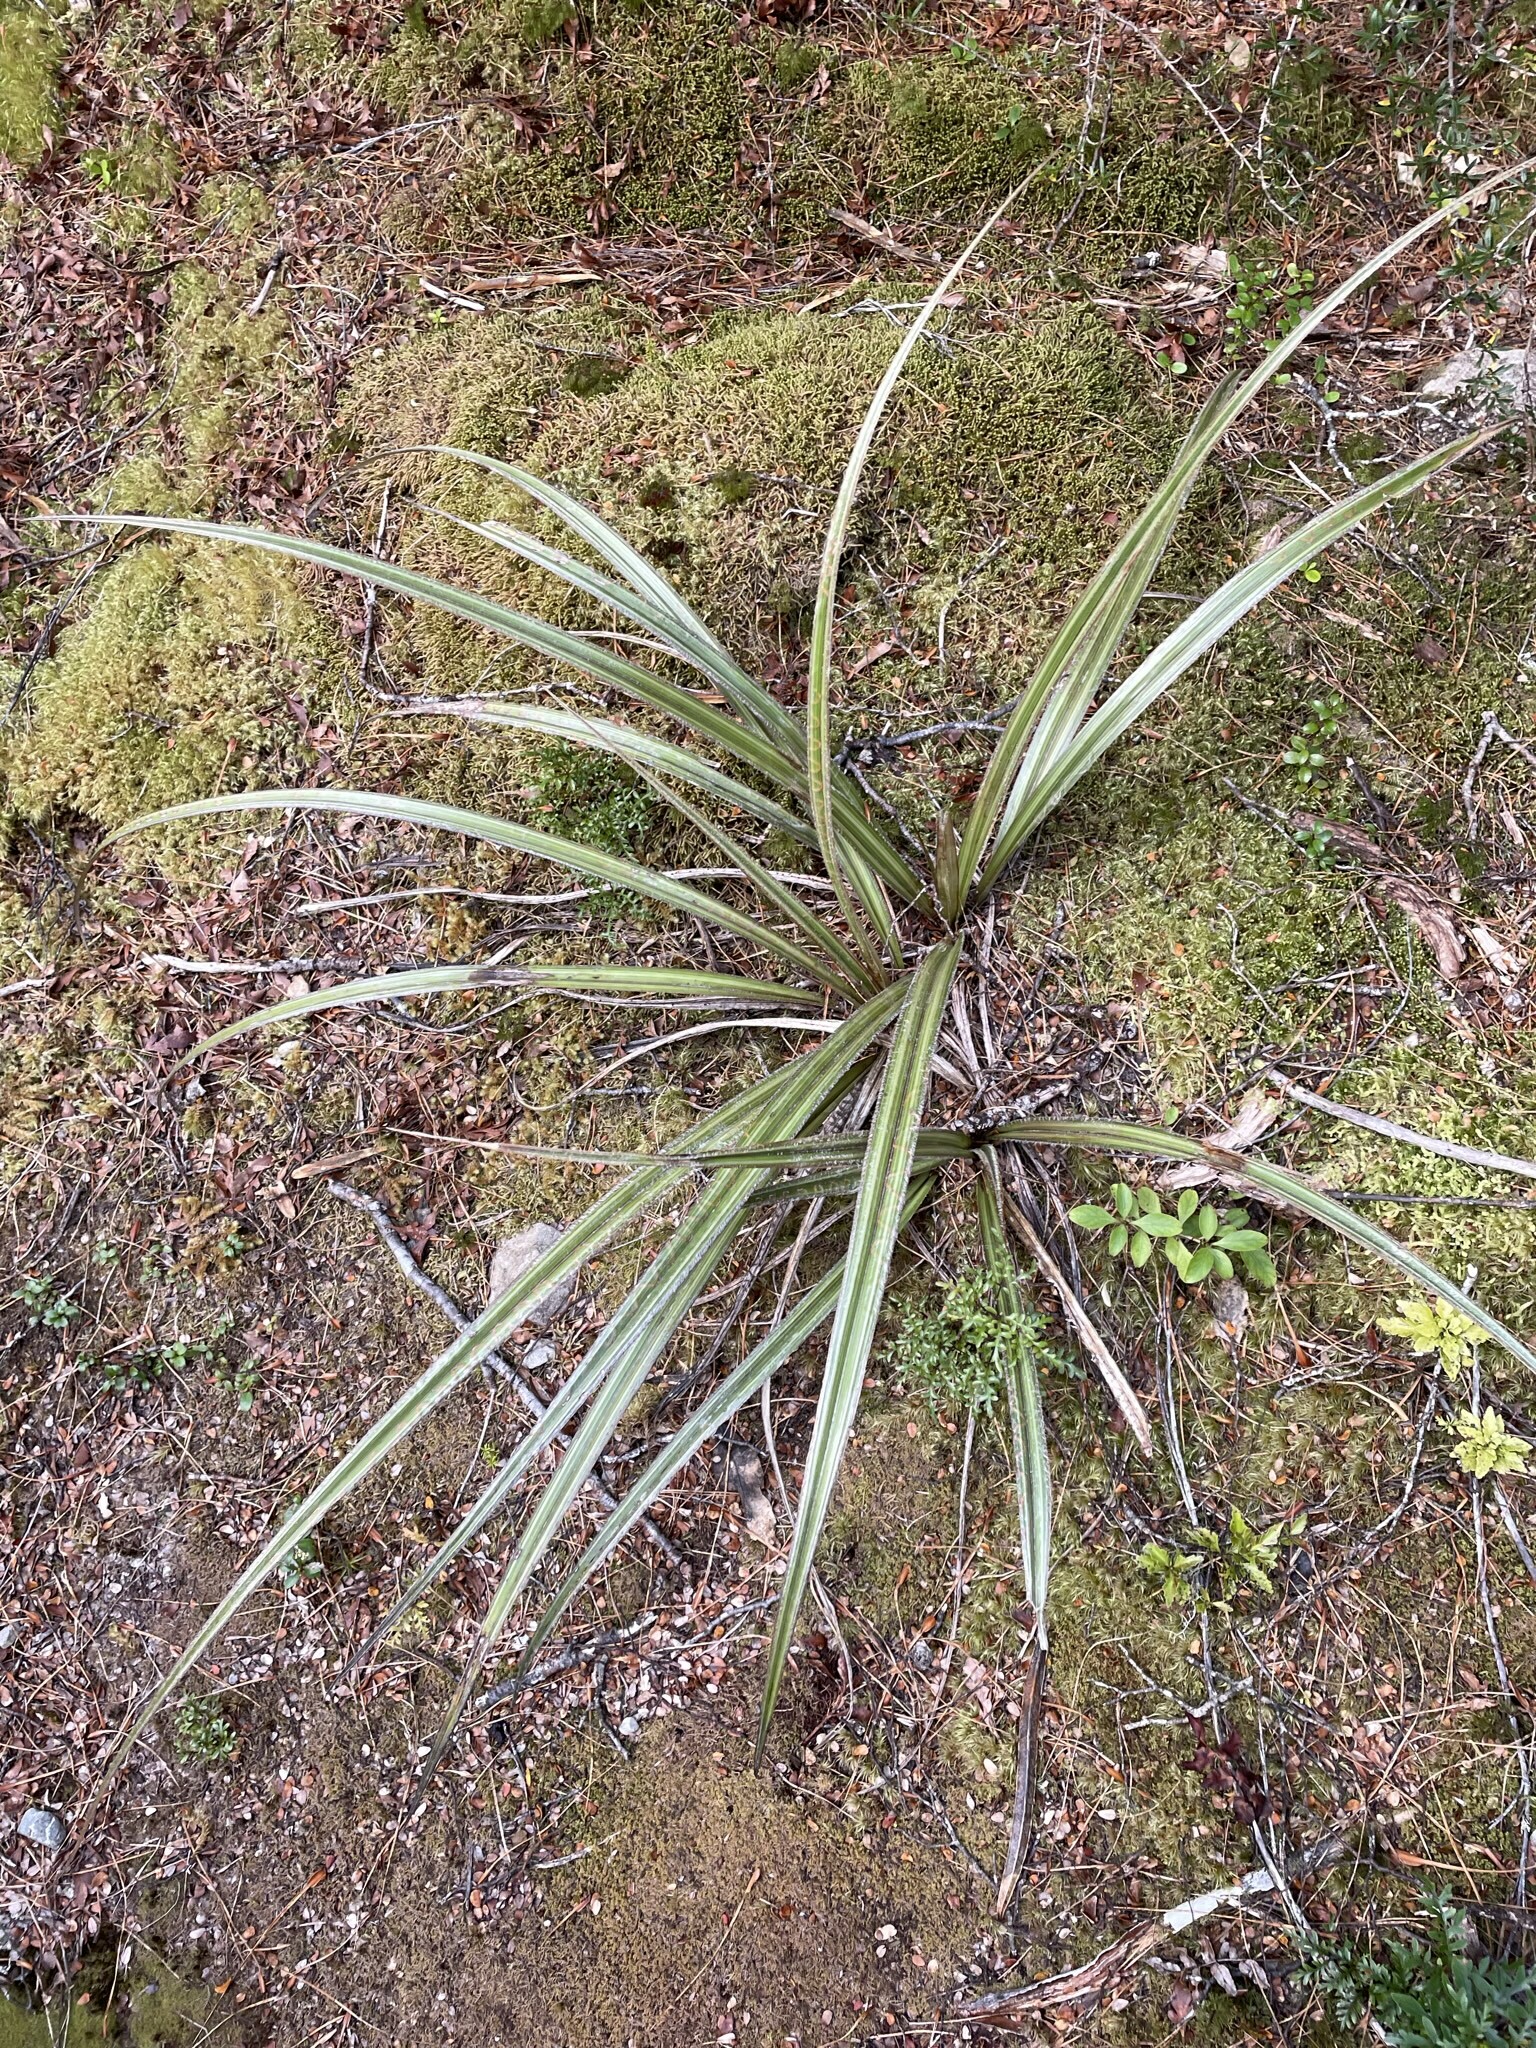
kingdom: Plantae
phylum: Tracheophyta
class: Liliopsida
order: Asparagales
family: Asteliaceae
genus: Astelia
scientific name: Astelia nervosa
